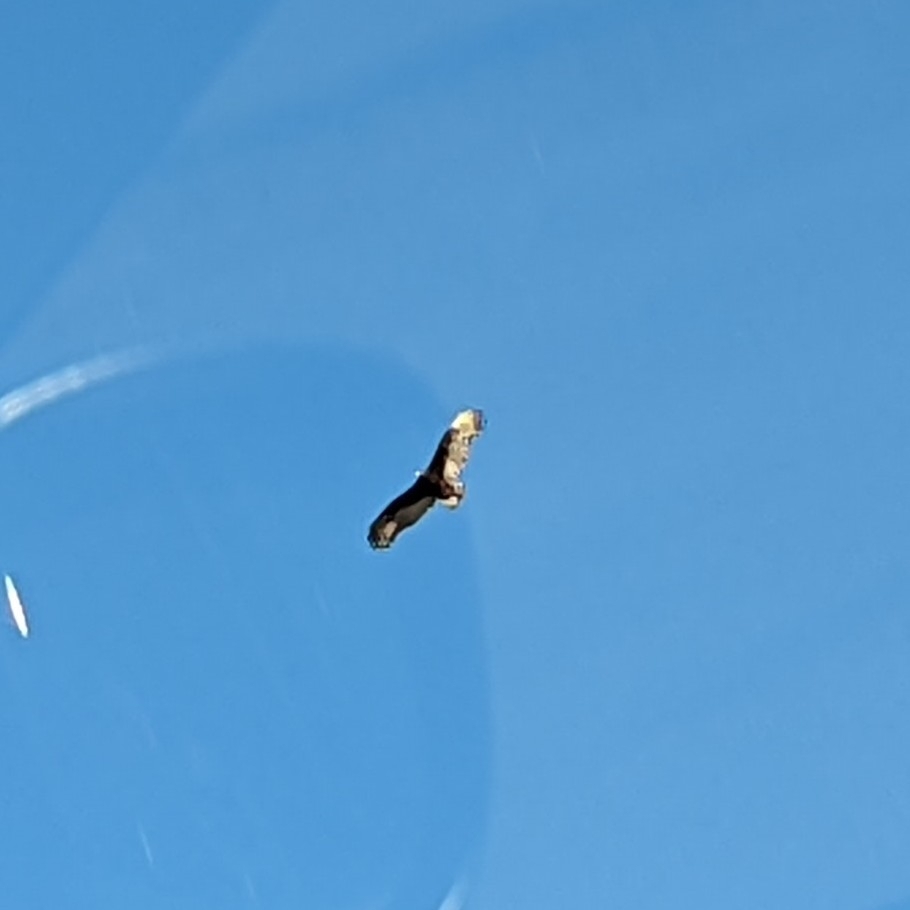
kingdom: Animalia
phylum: Chordata
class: Aves
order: Accipitriformes
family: Cathartidae
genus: Cathartes
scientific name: Cathartes aura
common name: Turkey vulture
